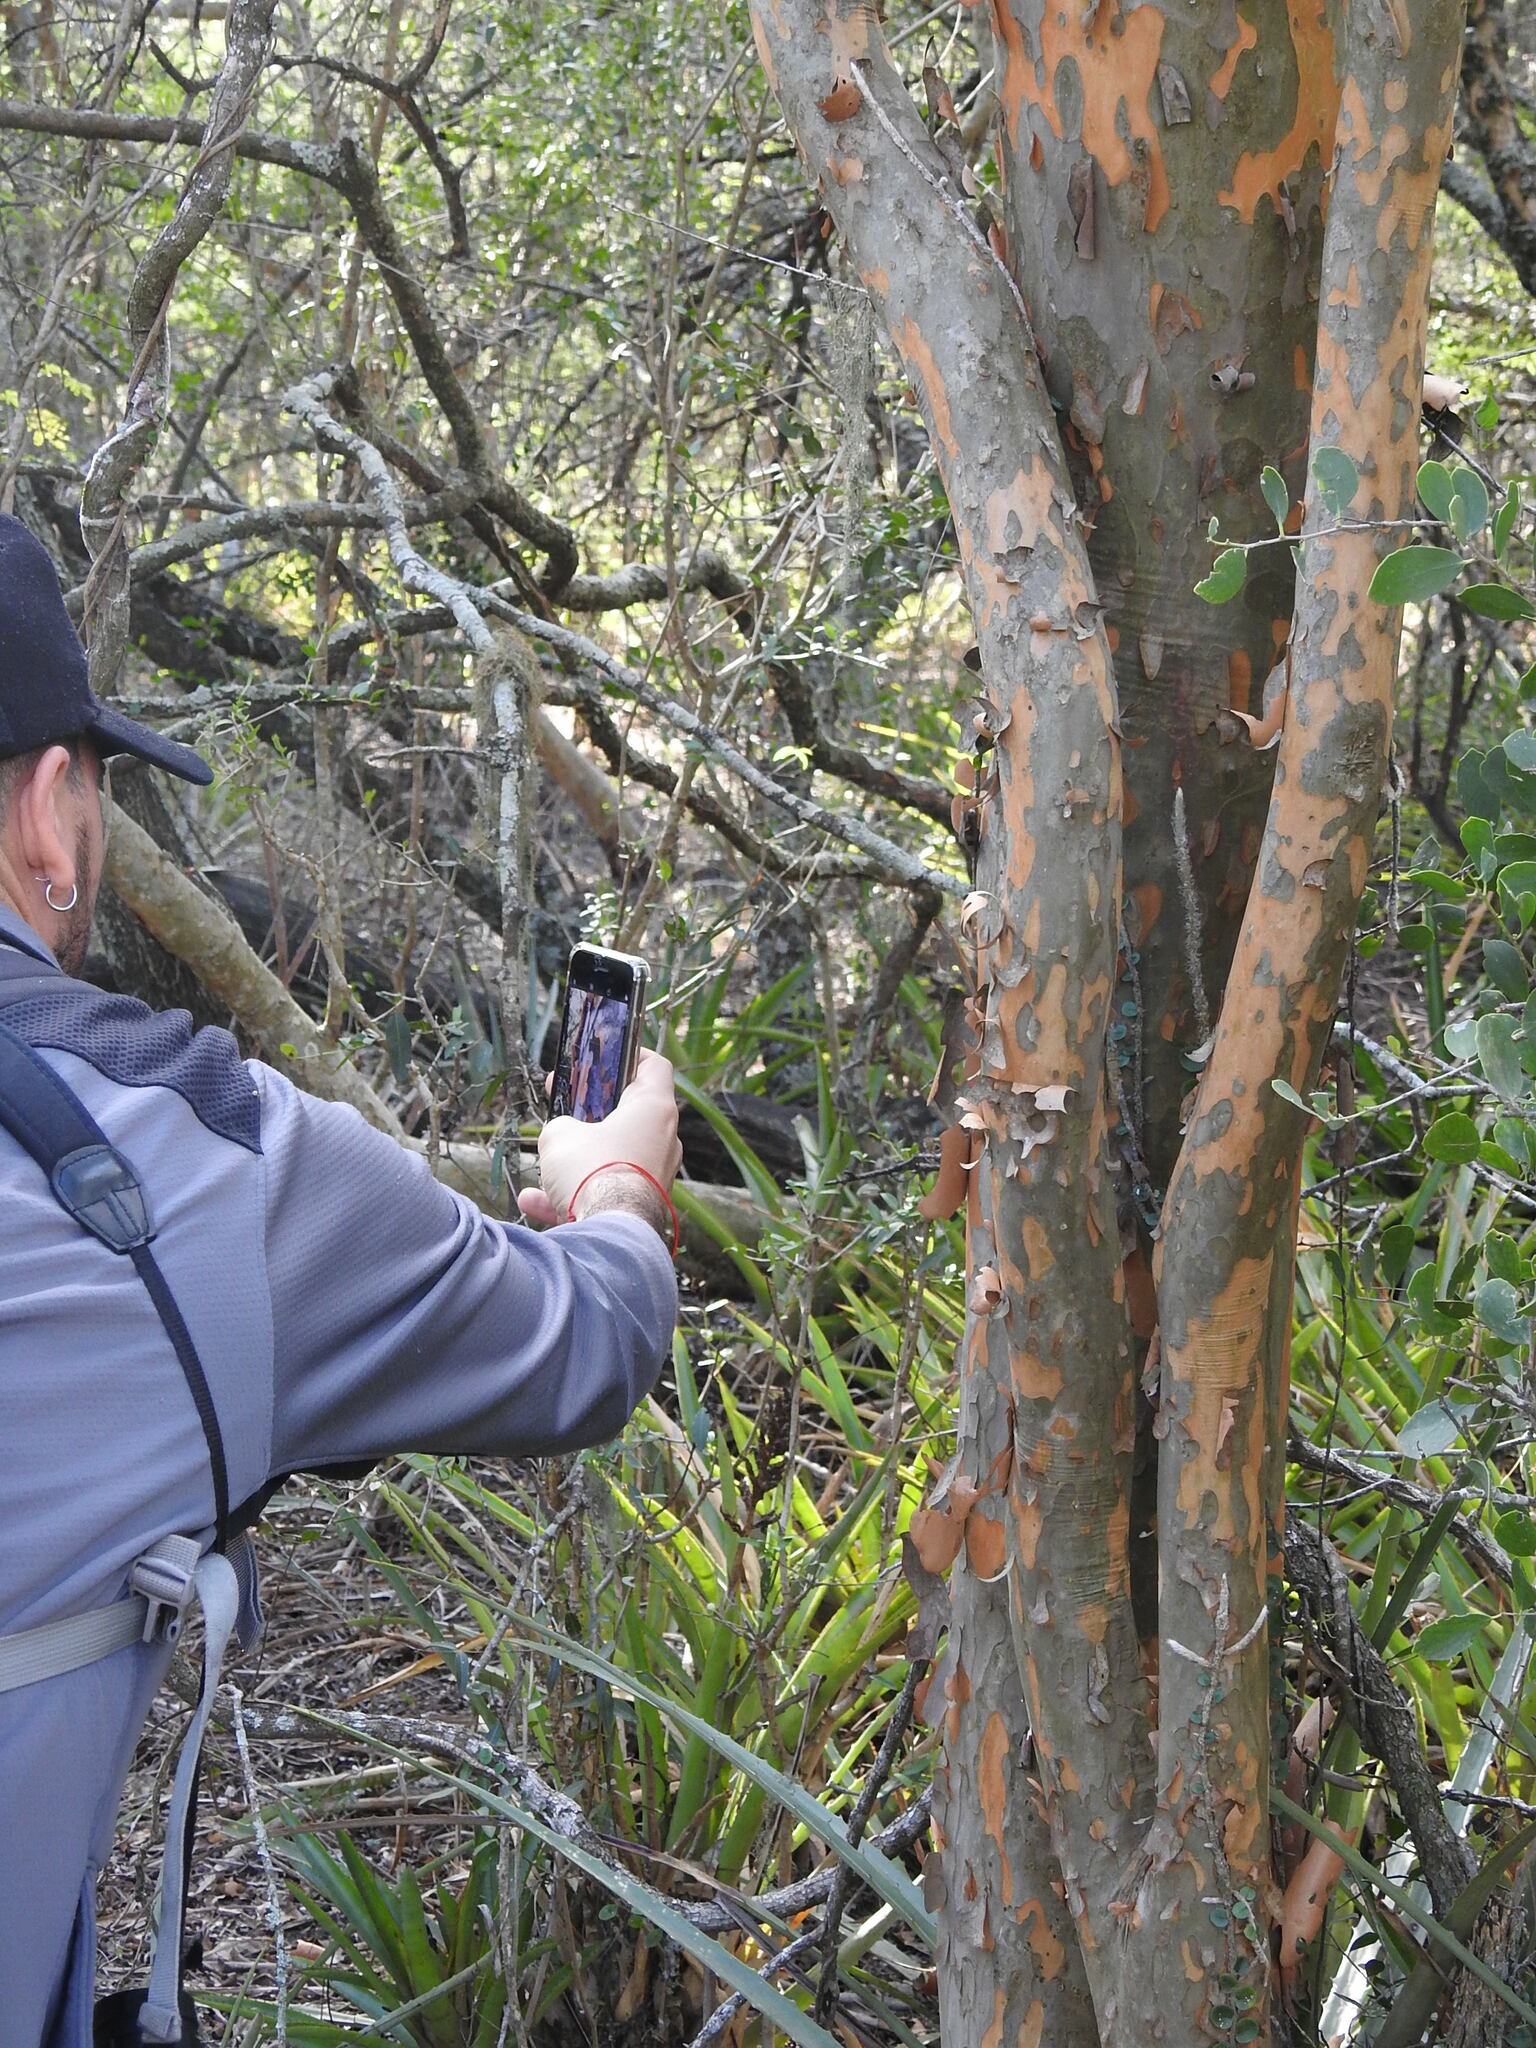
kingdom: Plantae
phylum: Tracheophyta
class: Magnoliopsida
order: Myrtales
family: Myrtaceae
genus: Myrcianthes
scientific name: Myrcianthes cisplatensis
